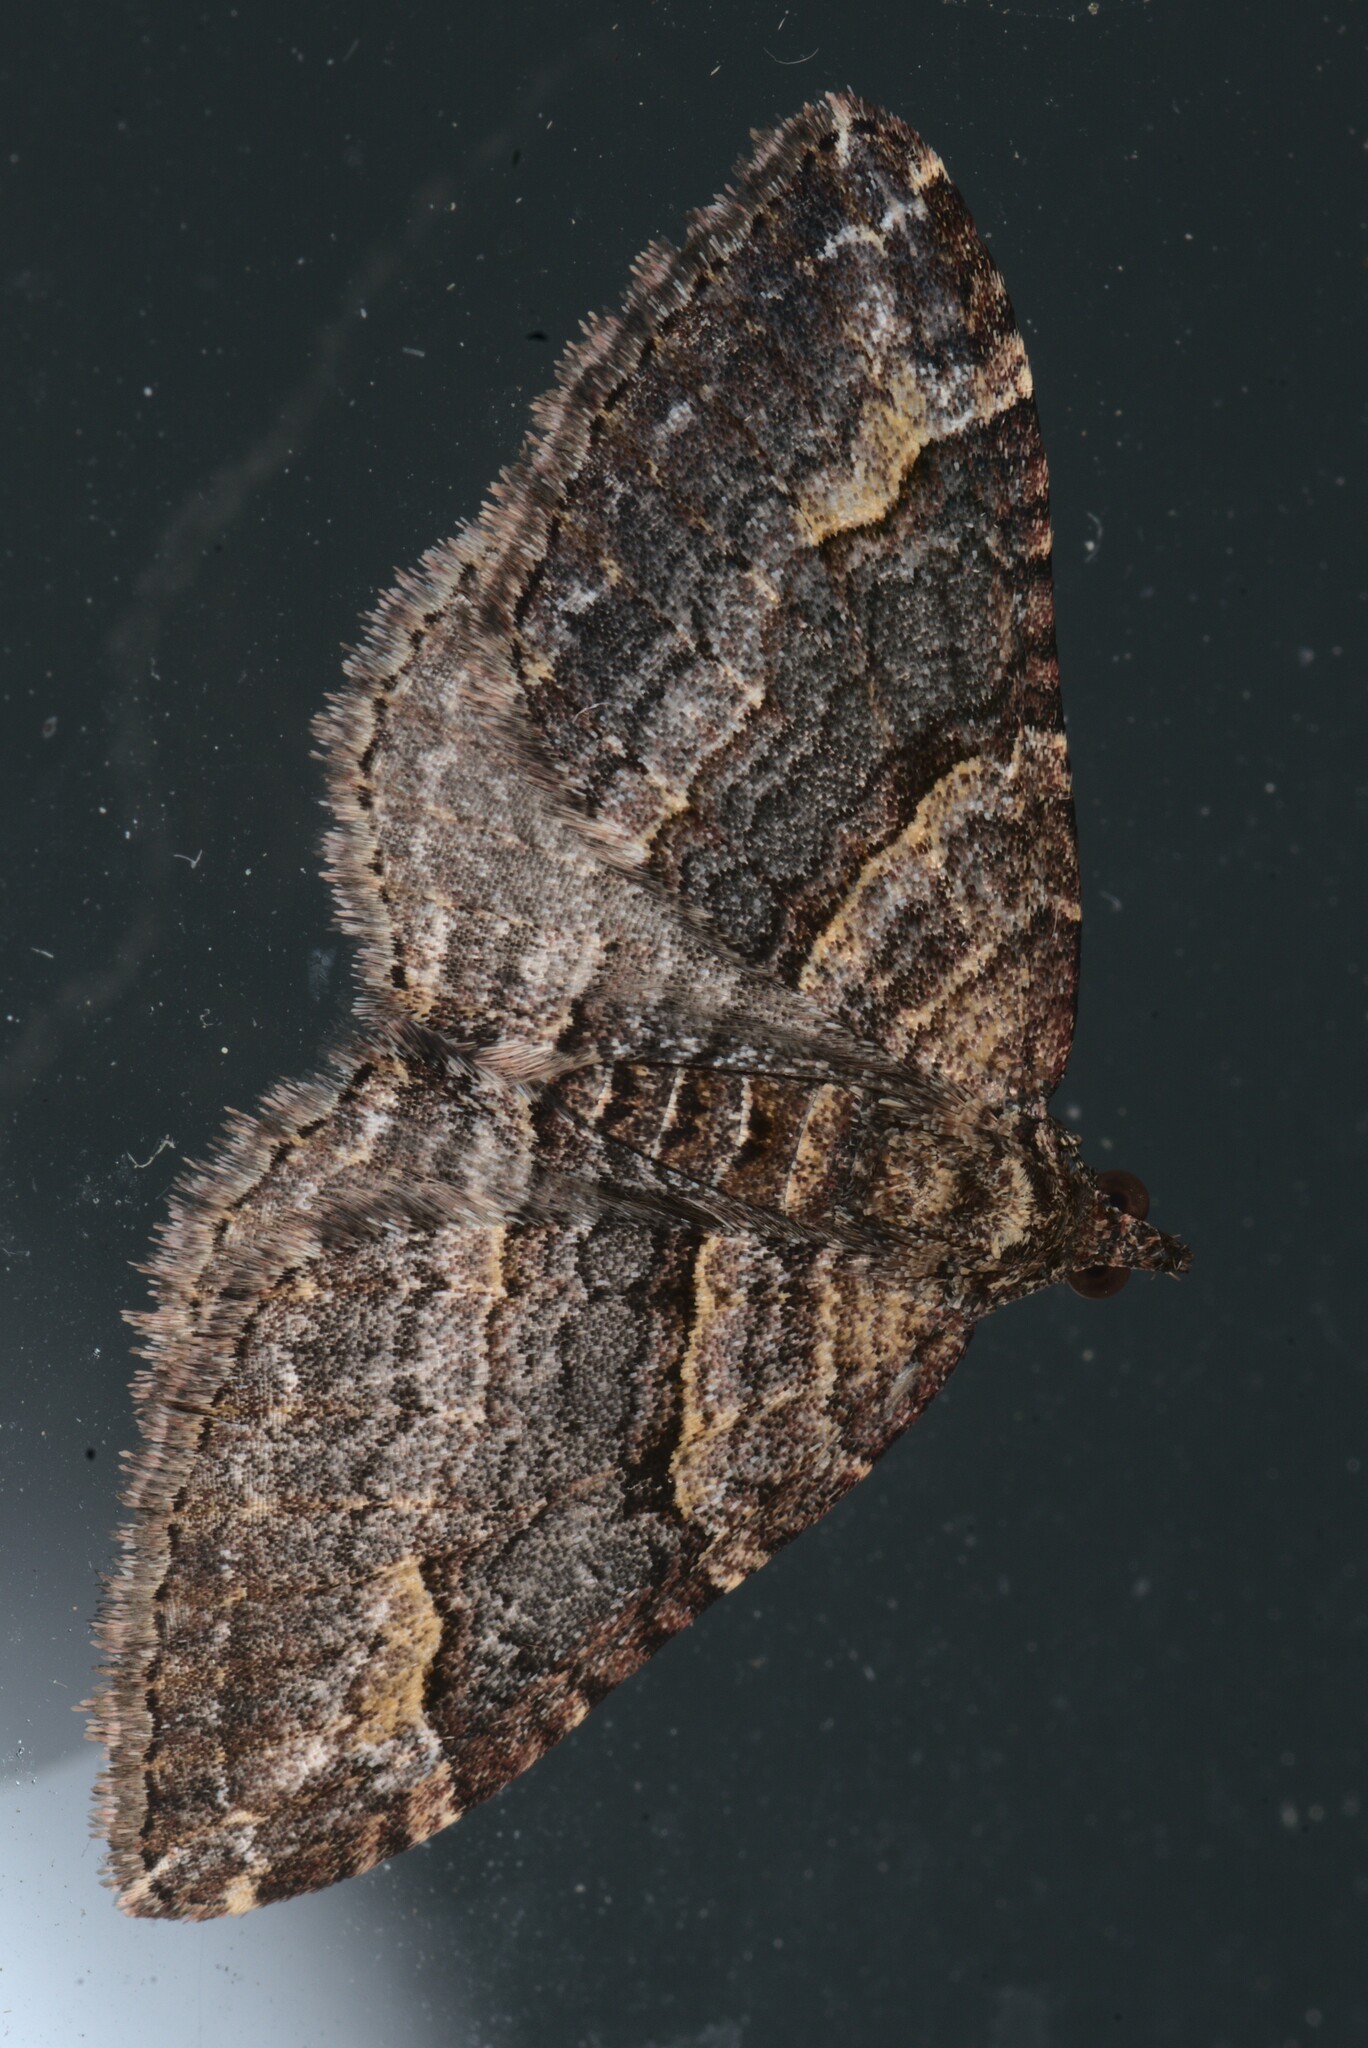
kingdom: Animalia
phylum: Arthropoda
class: Insecta
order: Lepidoptera
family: Geometridae
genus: Epyaxa
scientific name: Epyaxa lucidata
